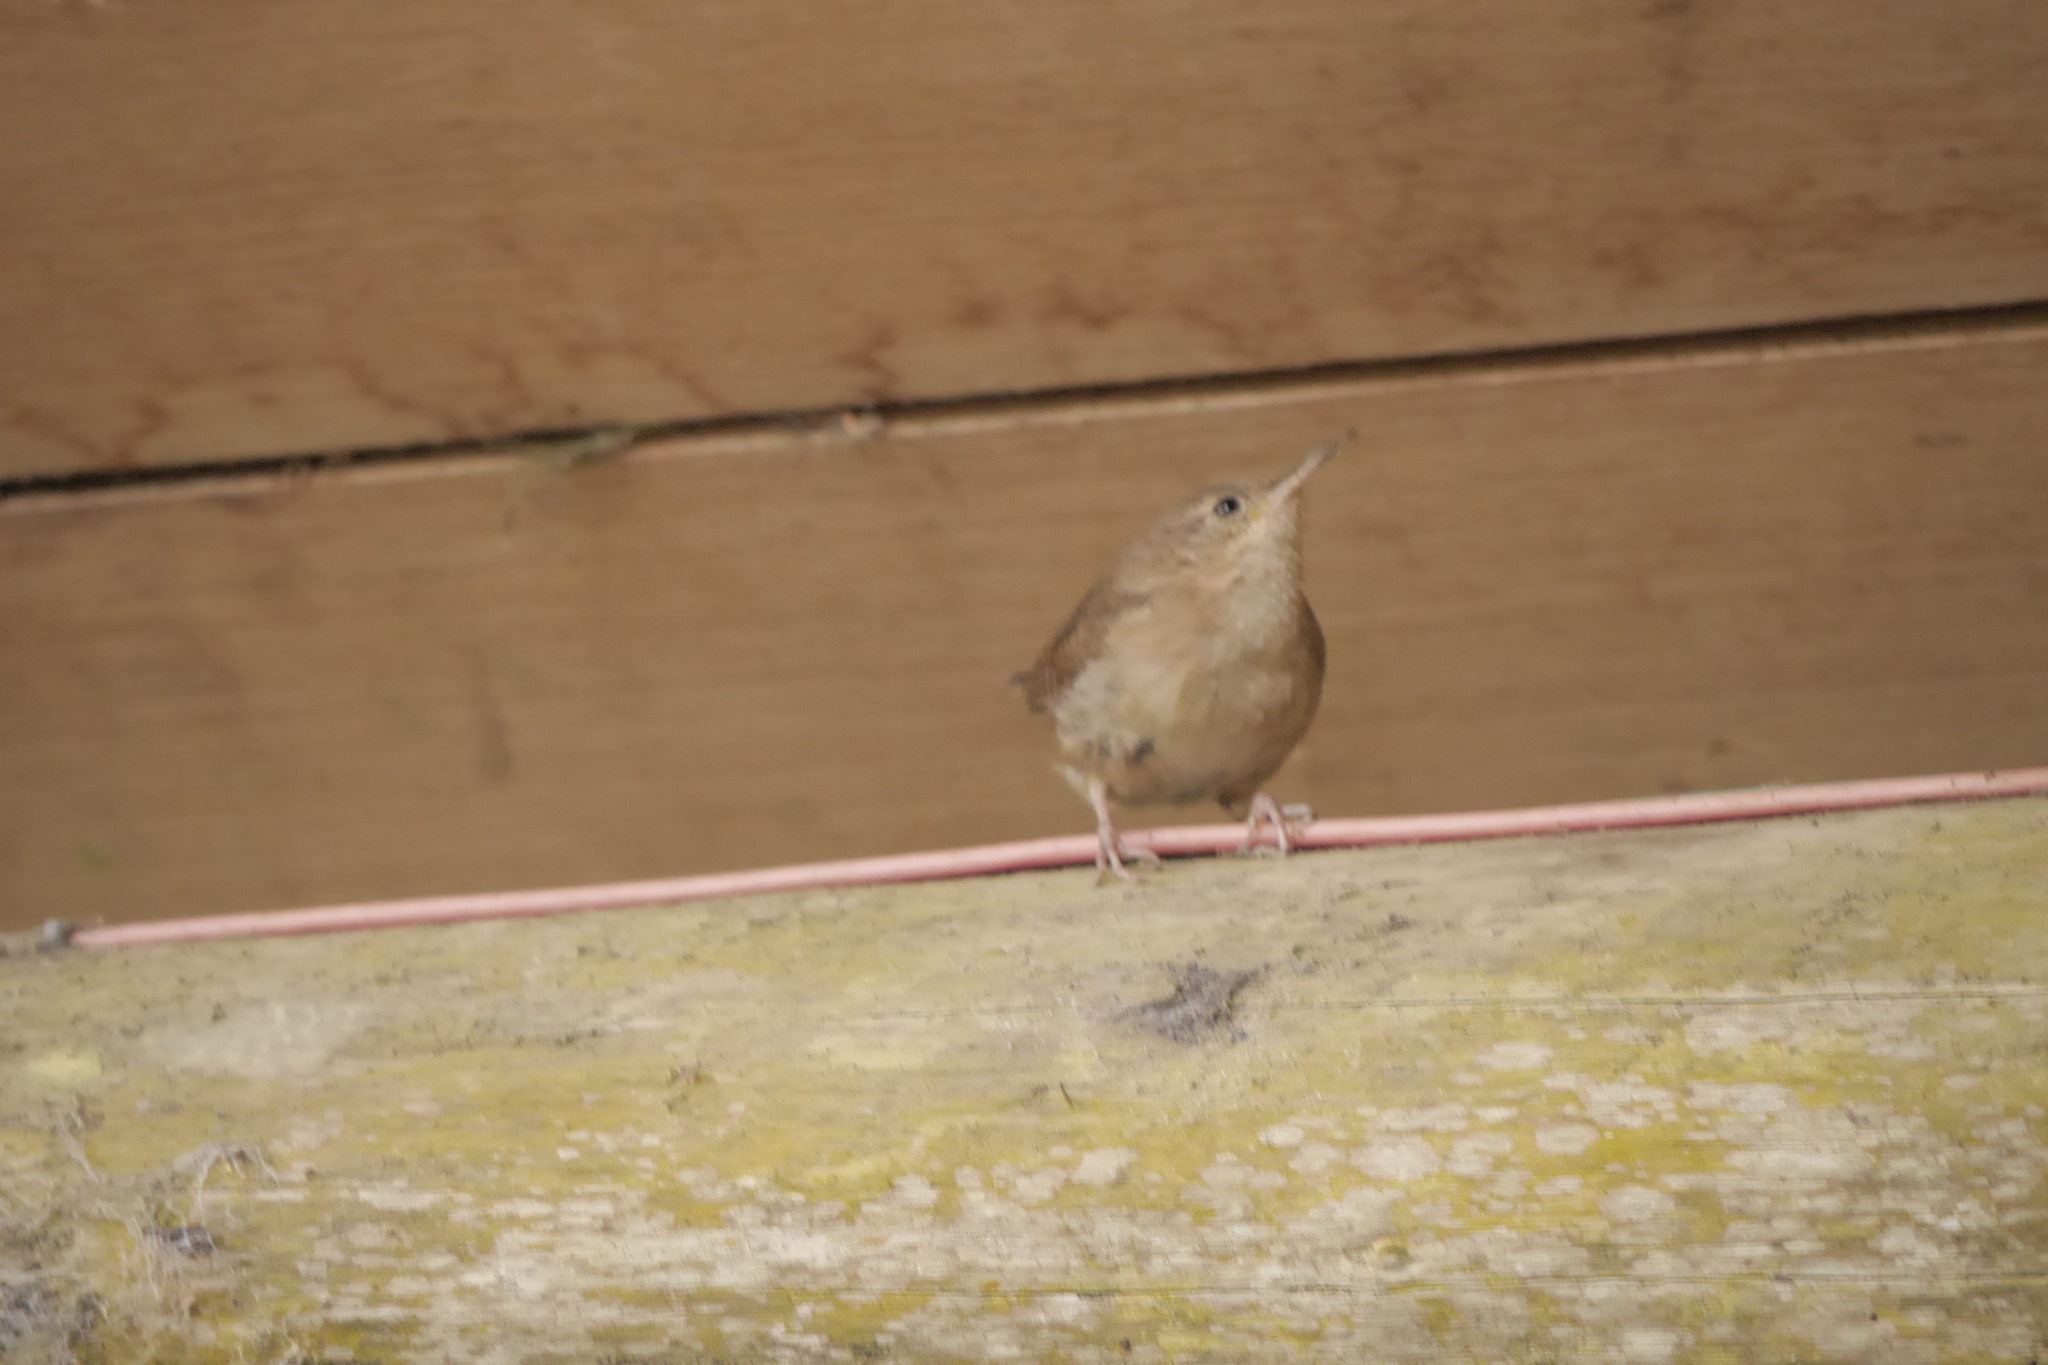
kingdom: Animalia
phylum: Chordata
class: Aves
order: Passeriformes
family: Troglodytidae
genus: Troglodytes
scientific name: Troglodytes aedon
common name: House wren
